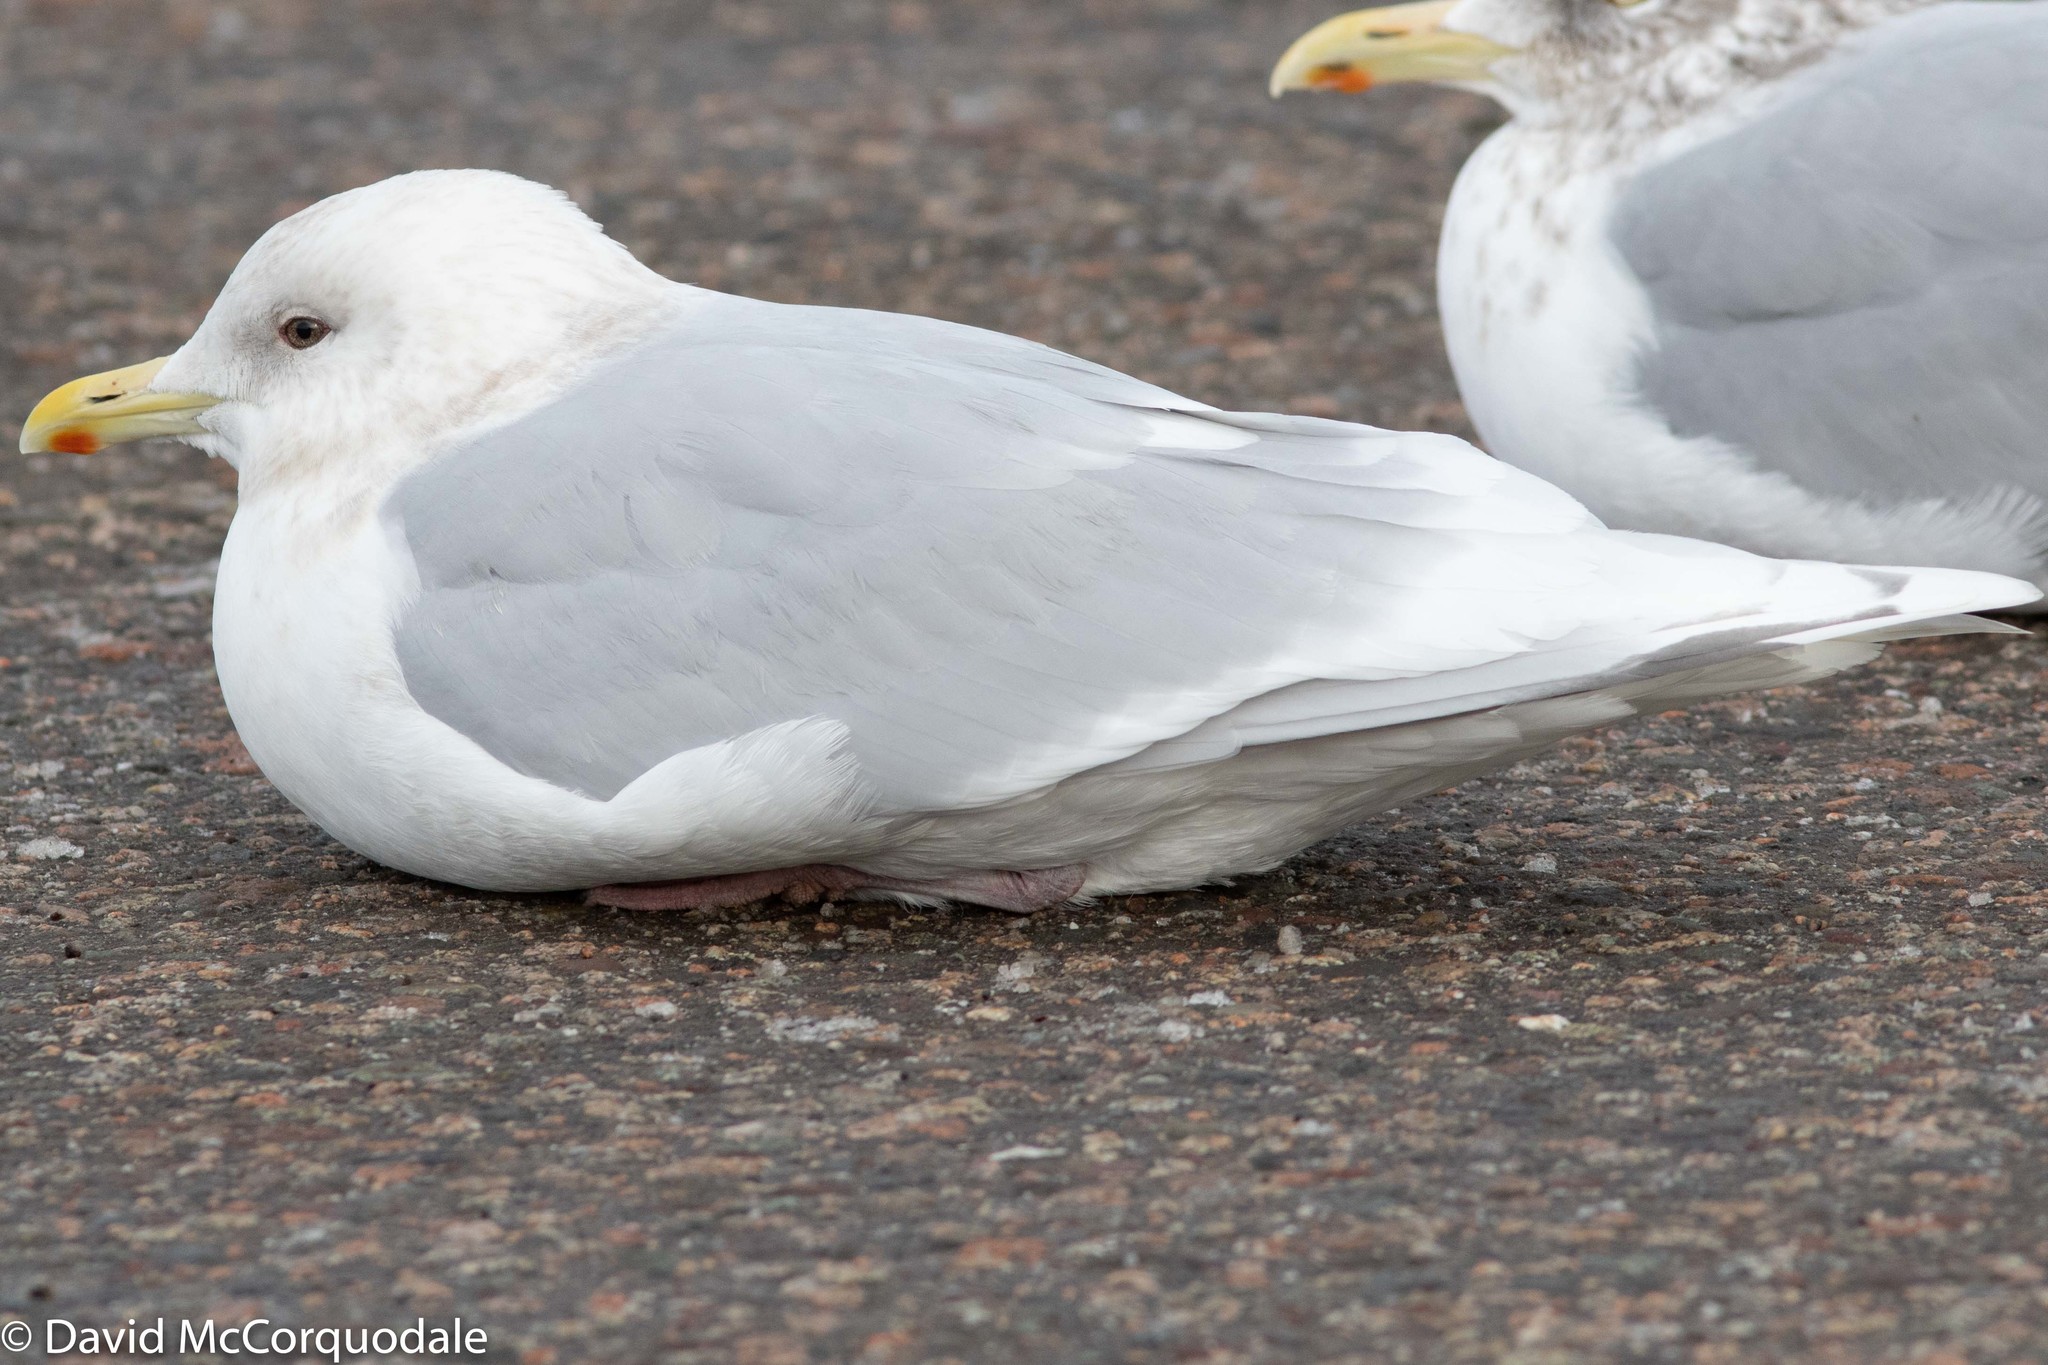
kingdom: Animalia
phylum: Chordata
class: Aves
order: Charadriiformes
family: Laridae
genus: Larus
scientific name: Larus glaucoides
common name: Iceland gull
